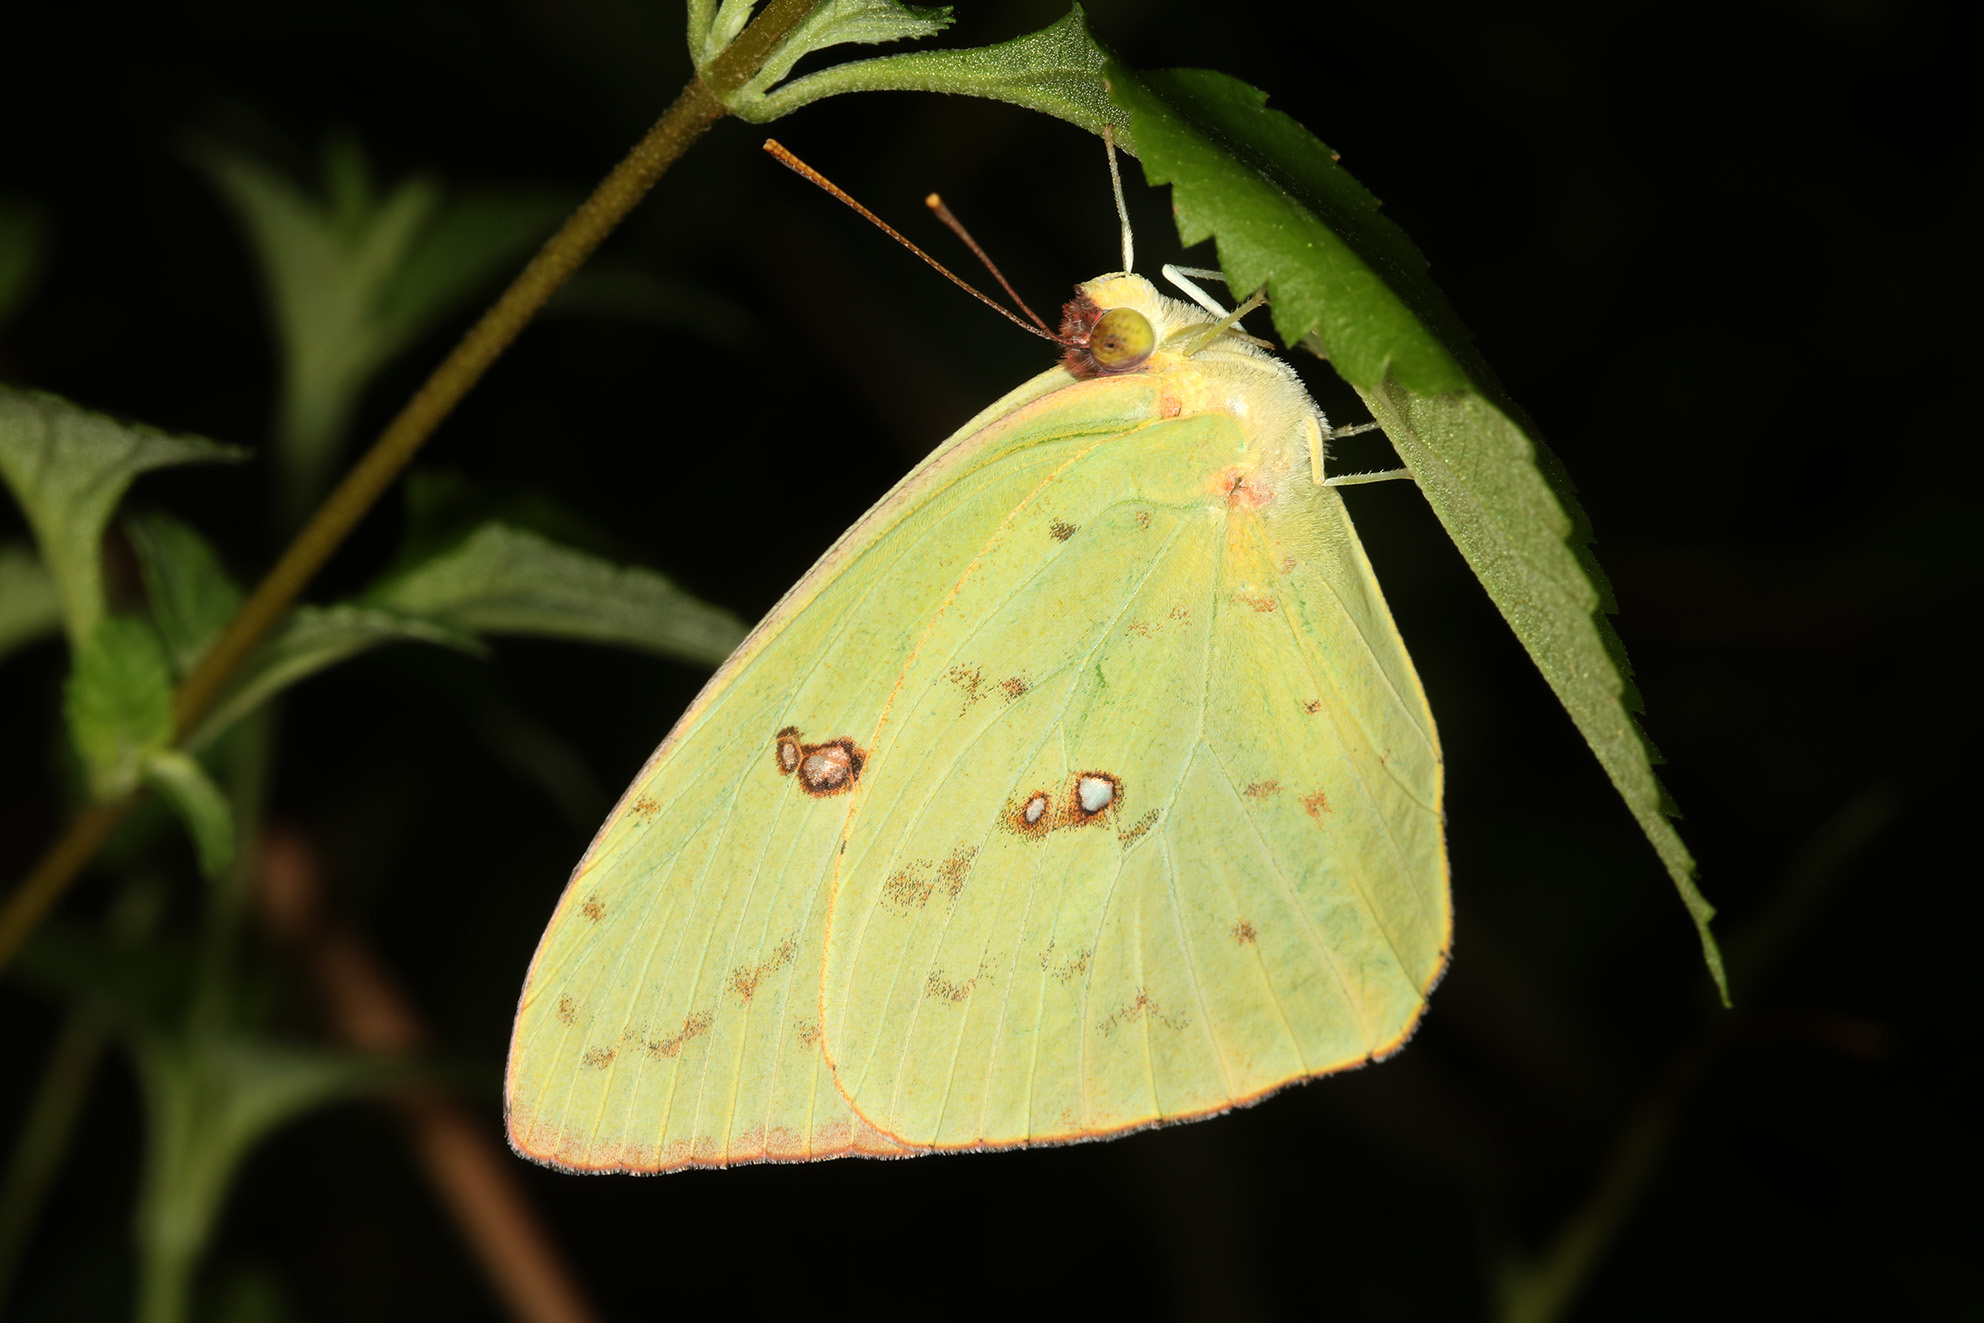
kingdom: Animalia
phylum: Arthropoda
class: Insecta
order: Lepidoptera
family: Pieridae
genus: Phoebis
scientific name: Phoebis sennae
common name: Cloudless sulphur
